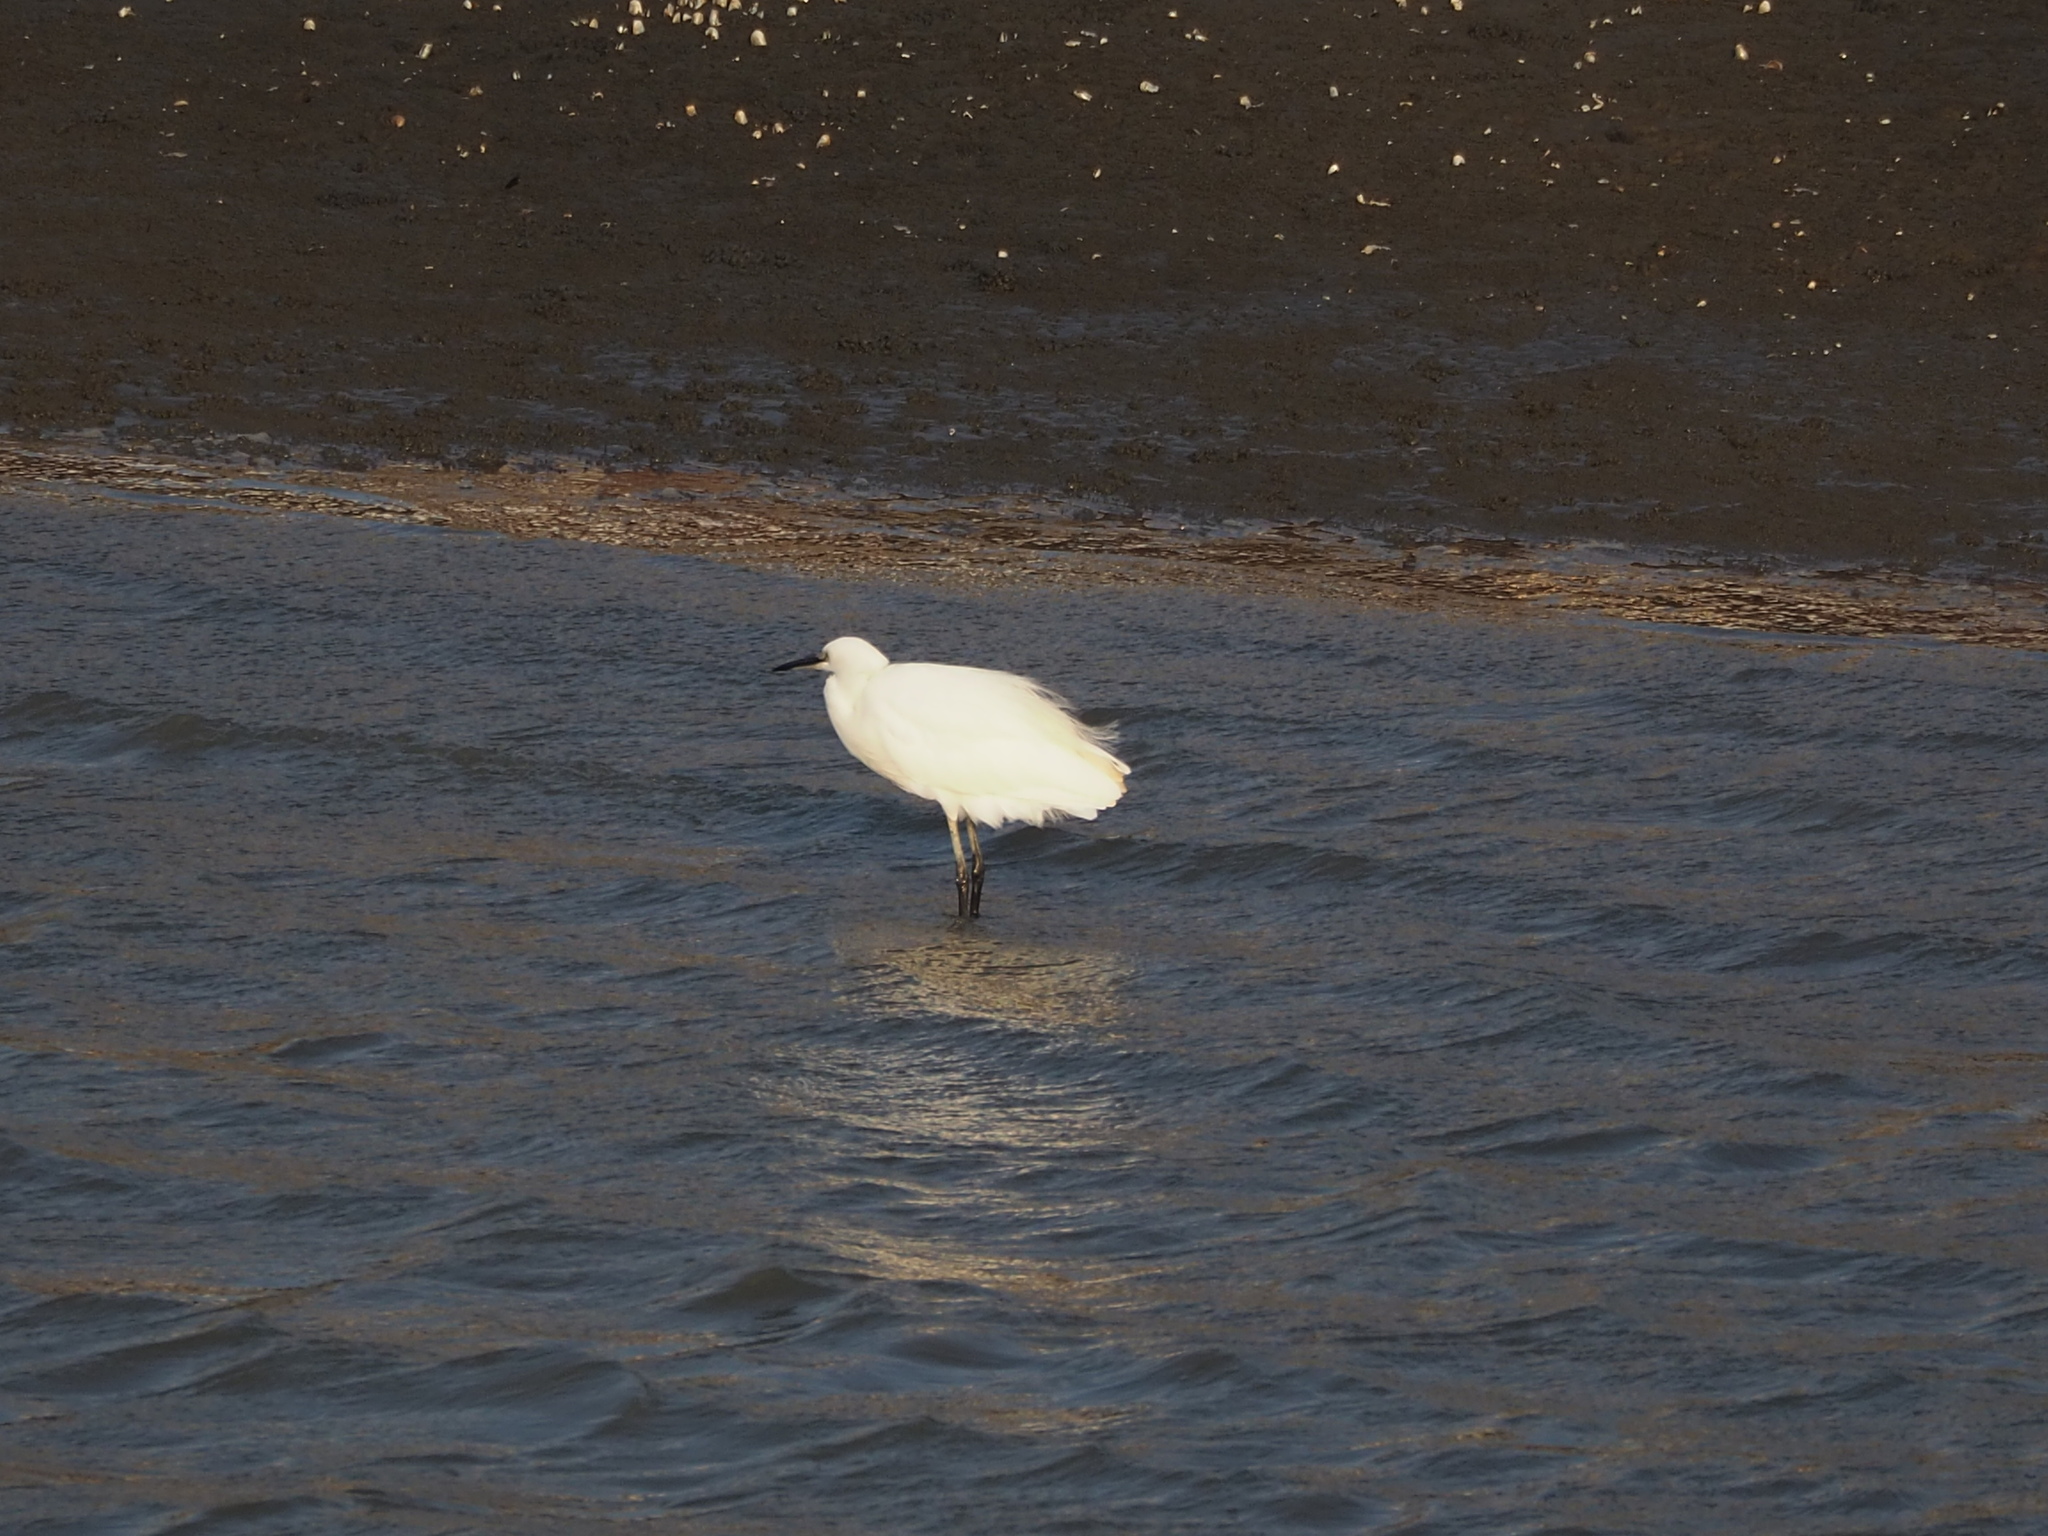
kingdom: Animalia
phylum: Chordata
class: Aves
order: Pelecaniformes
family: Ardeidae
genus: Egretta
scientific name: Egretta garzetta
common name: Little egret
